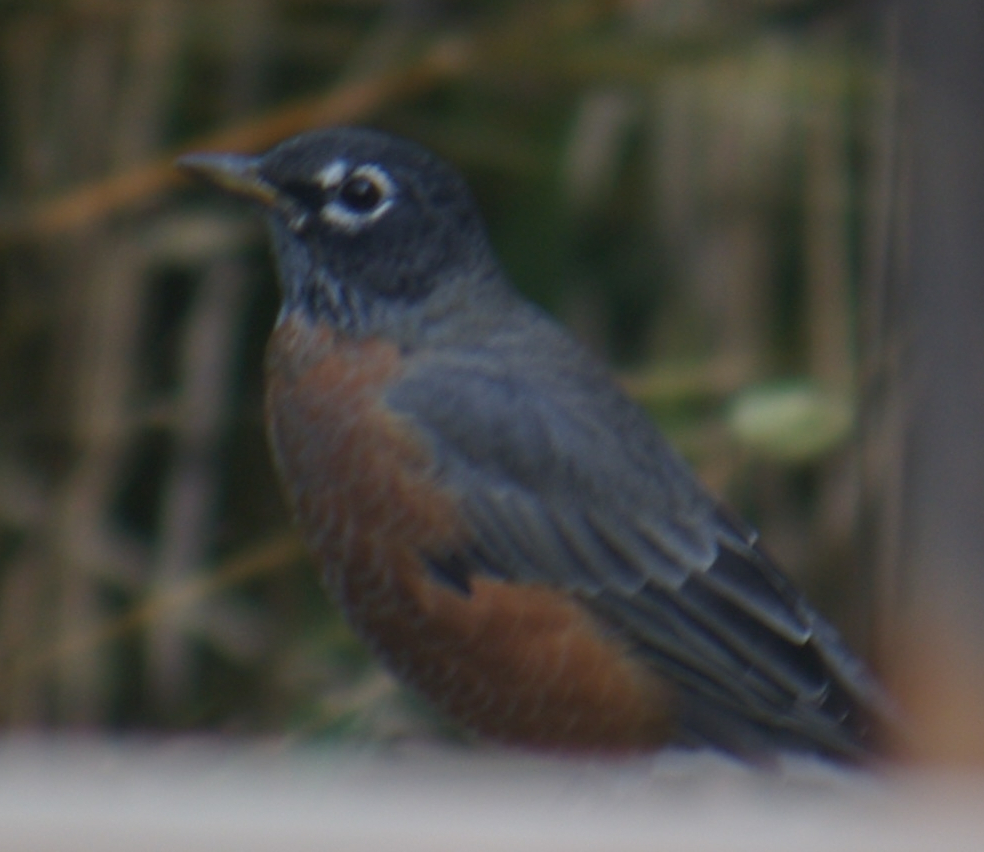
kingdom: Animalia
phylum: Chordata
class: Aves
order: Passeriformes
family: Turdidae
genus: Turdus
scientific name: Turdus migratorius
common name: American robin
